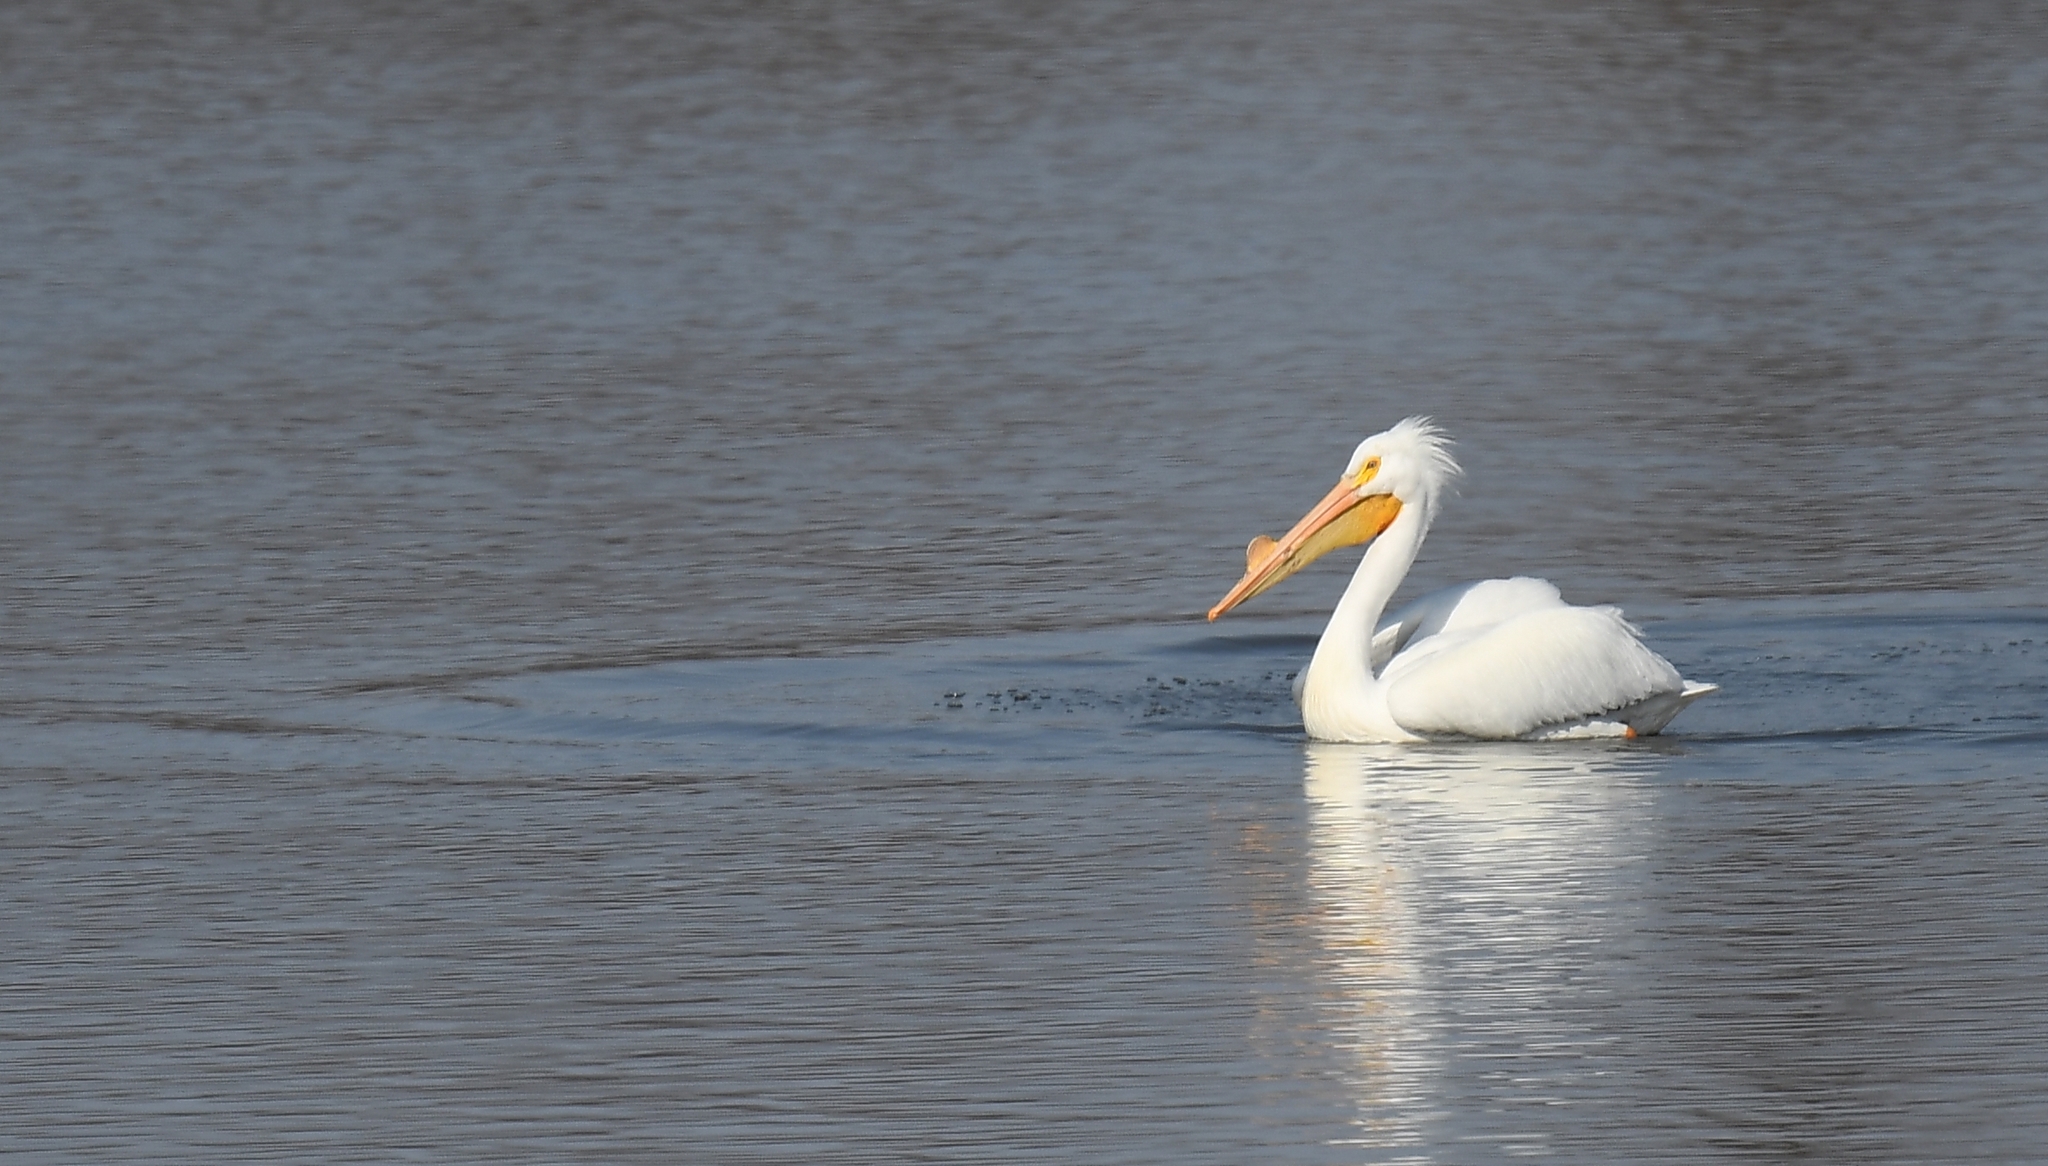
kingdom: Animalia
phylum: Chordata
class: Aves
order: Pelecaniformes
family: Pelecanidae
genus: Pelecanus
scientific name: Pelecanus erythrorhynchos
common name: American white pelican
